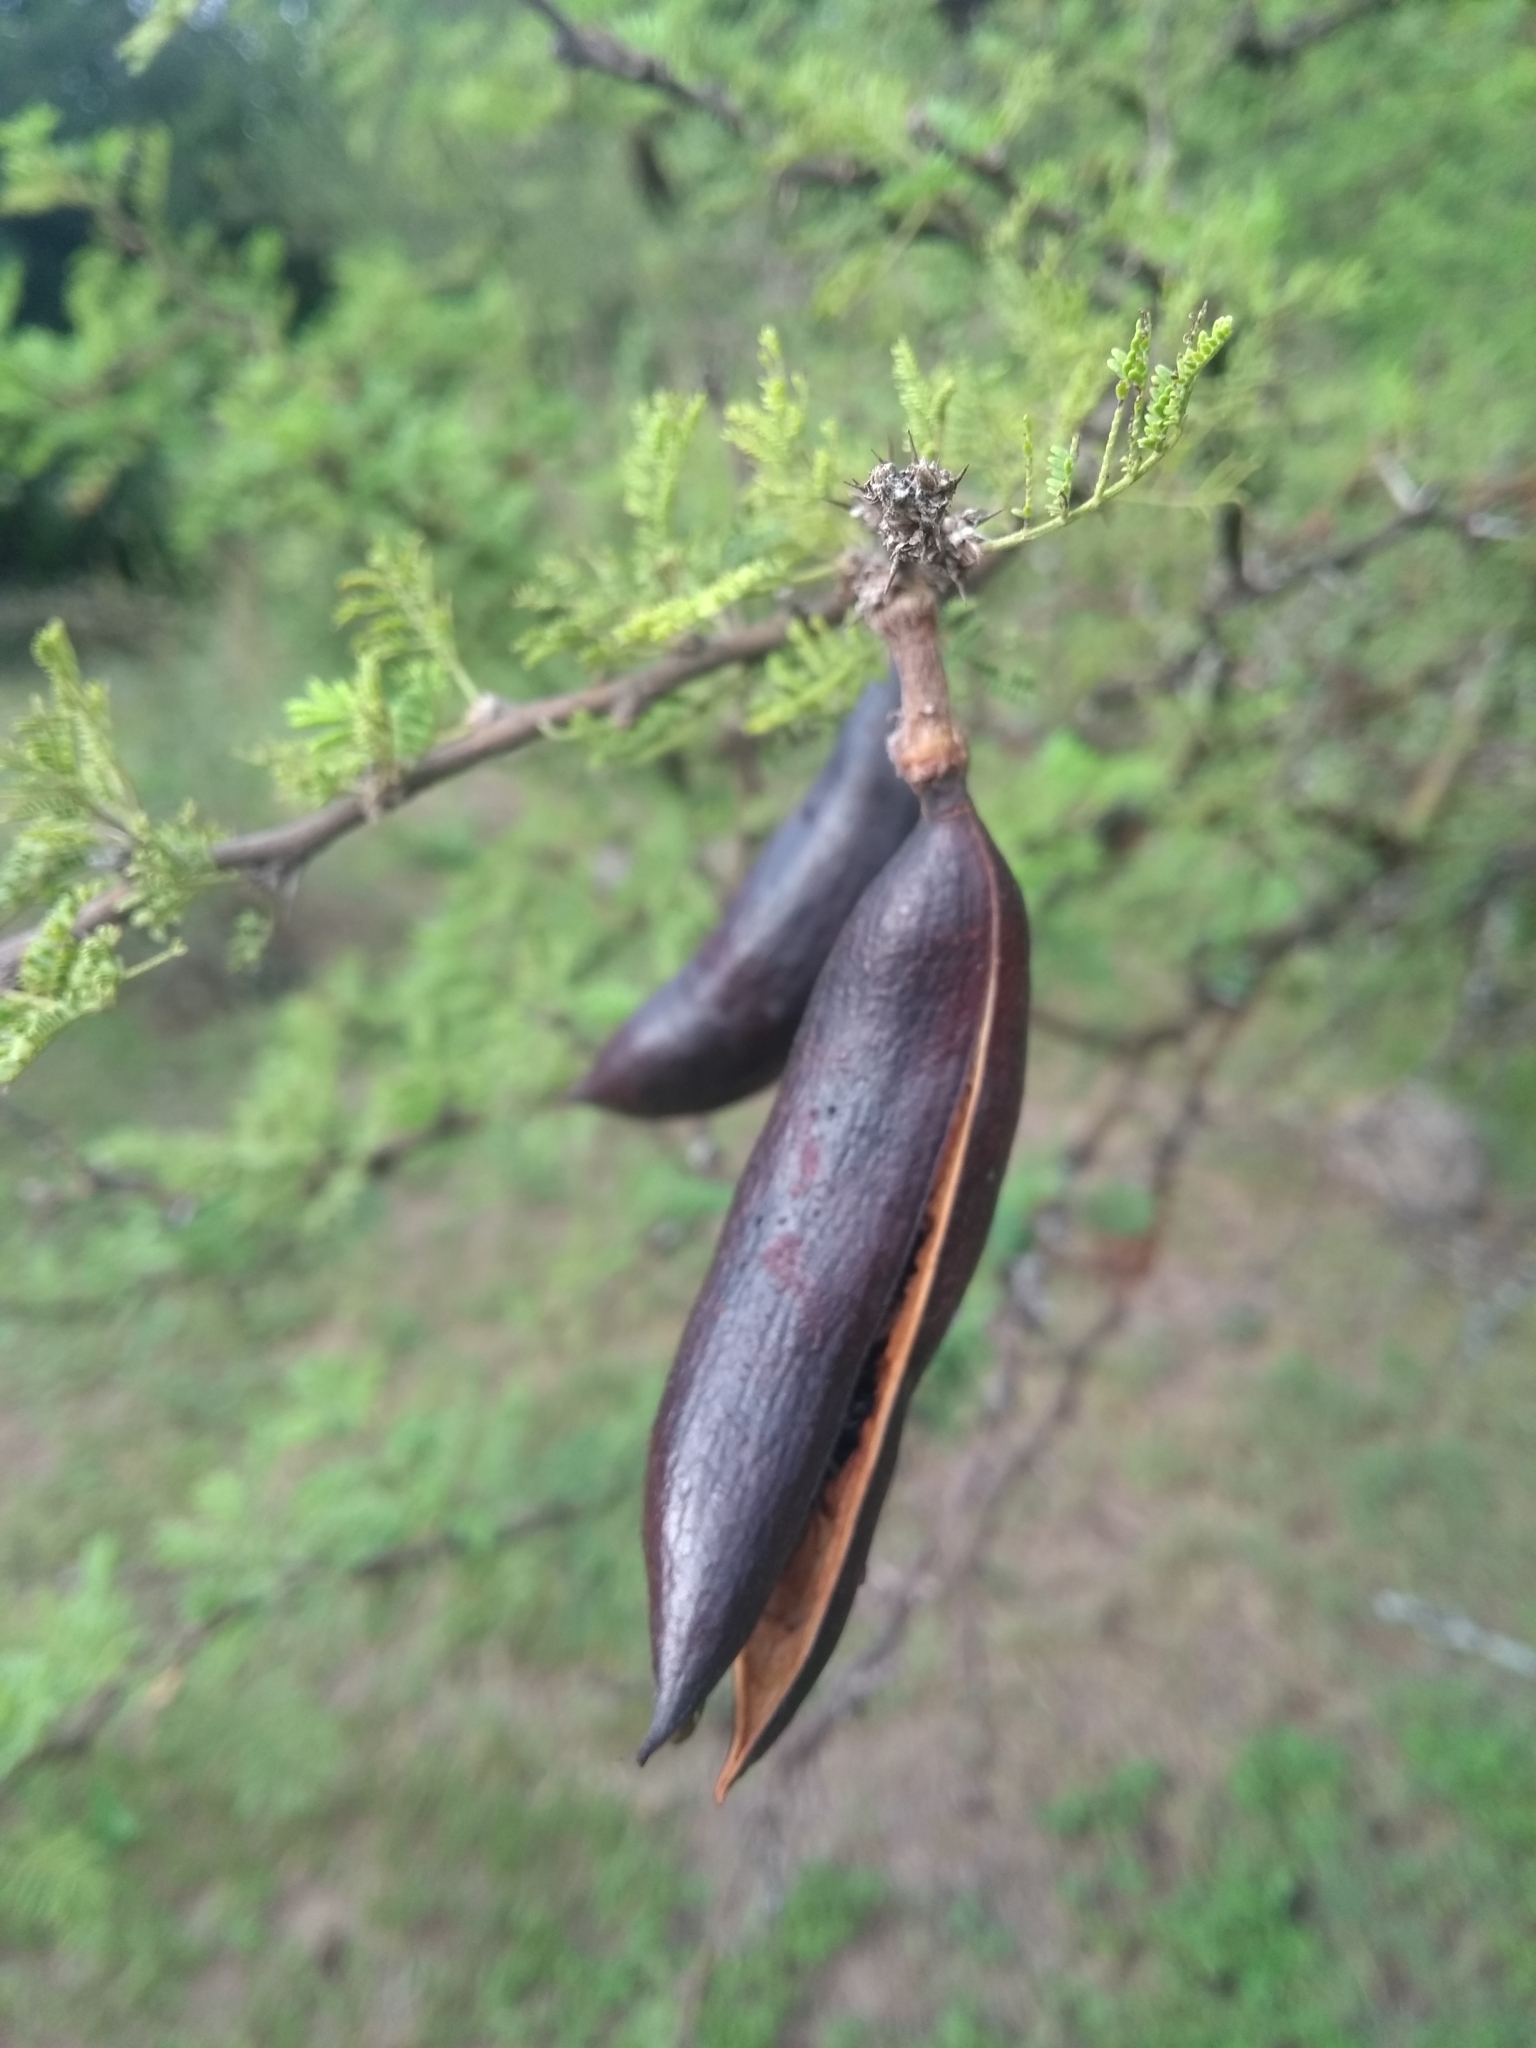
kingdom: Plantae
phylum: Tracheophyta
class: Magnoliopsida
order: Fabales
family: Fabaceae
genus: Vachellia
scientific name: Vachellia caven
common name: Roman cassie
